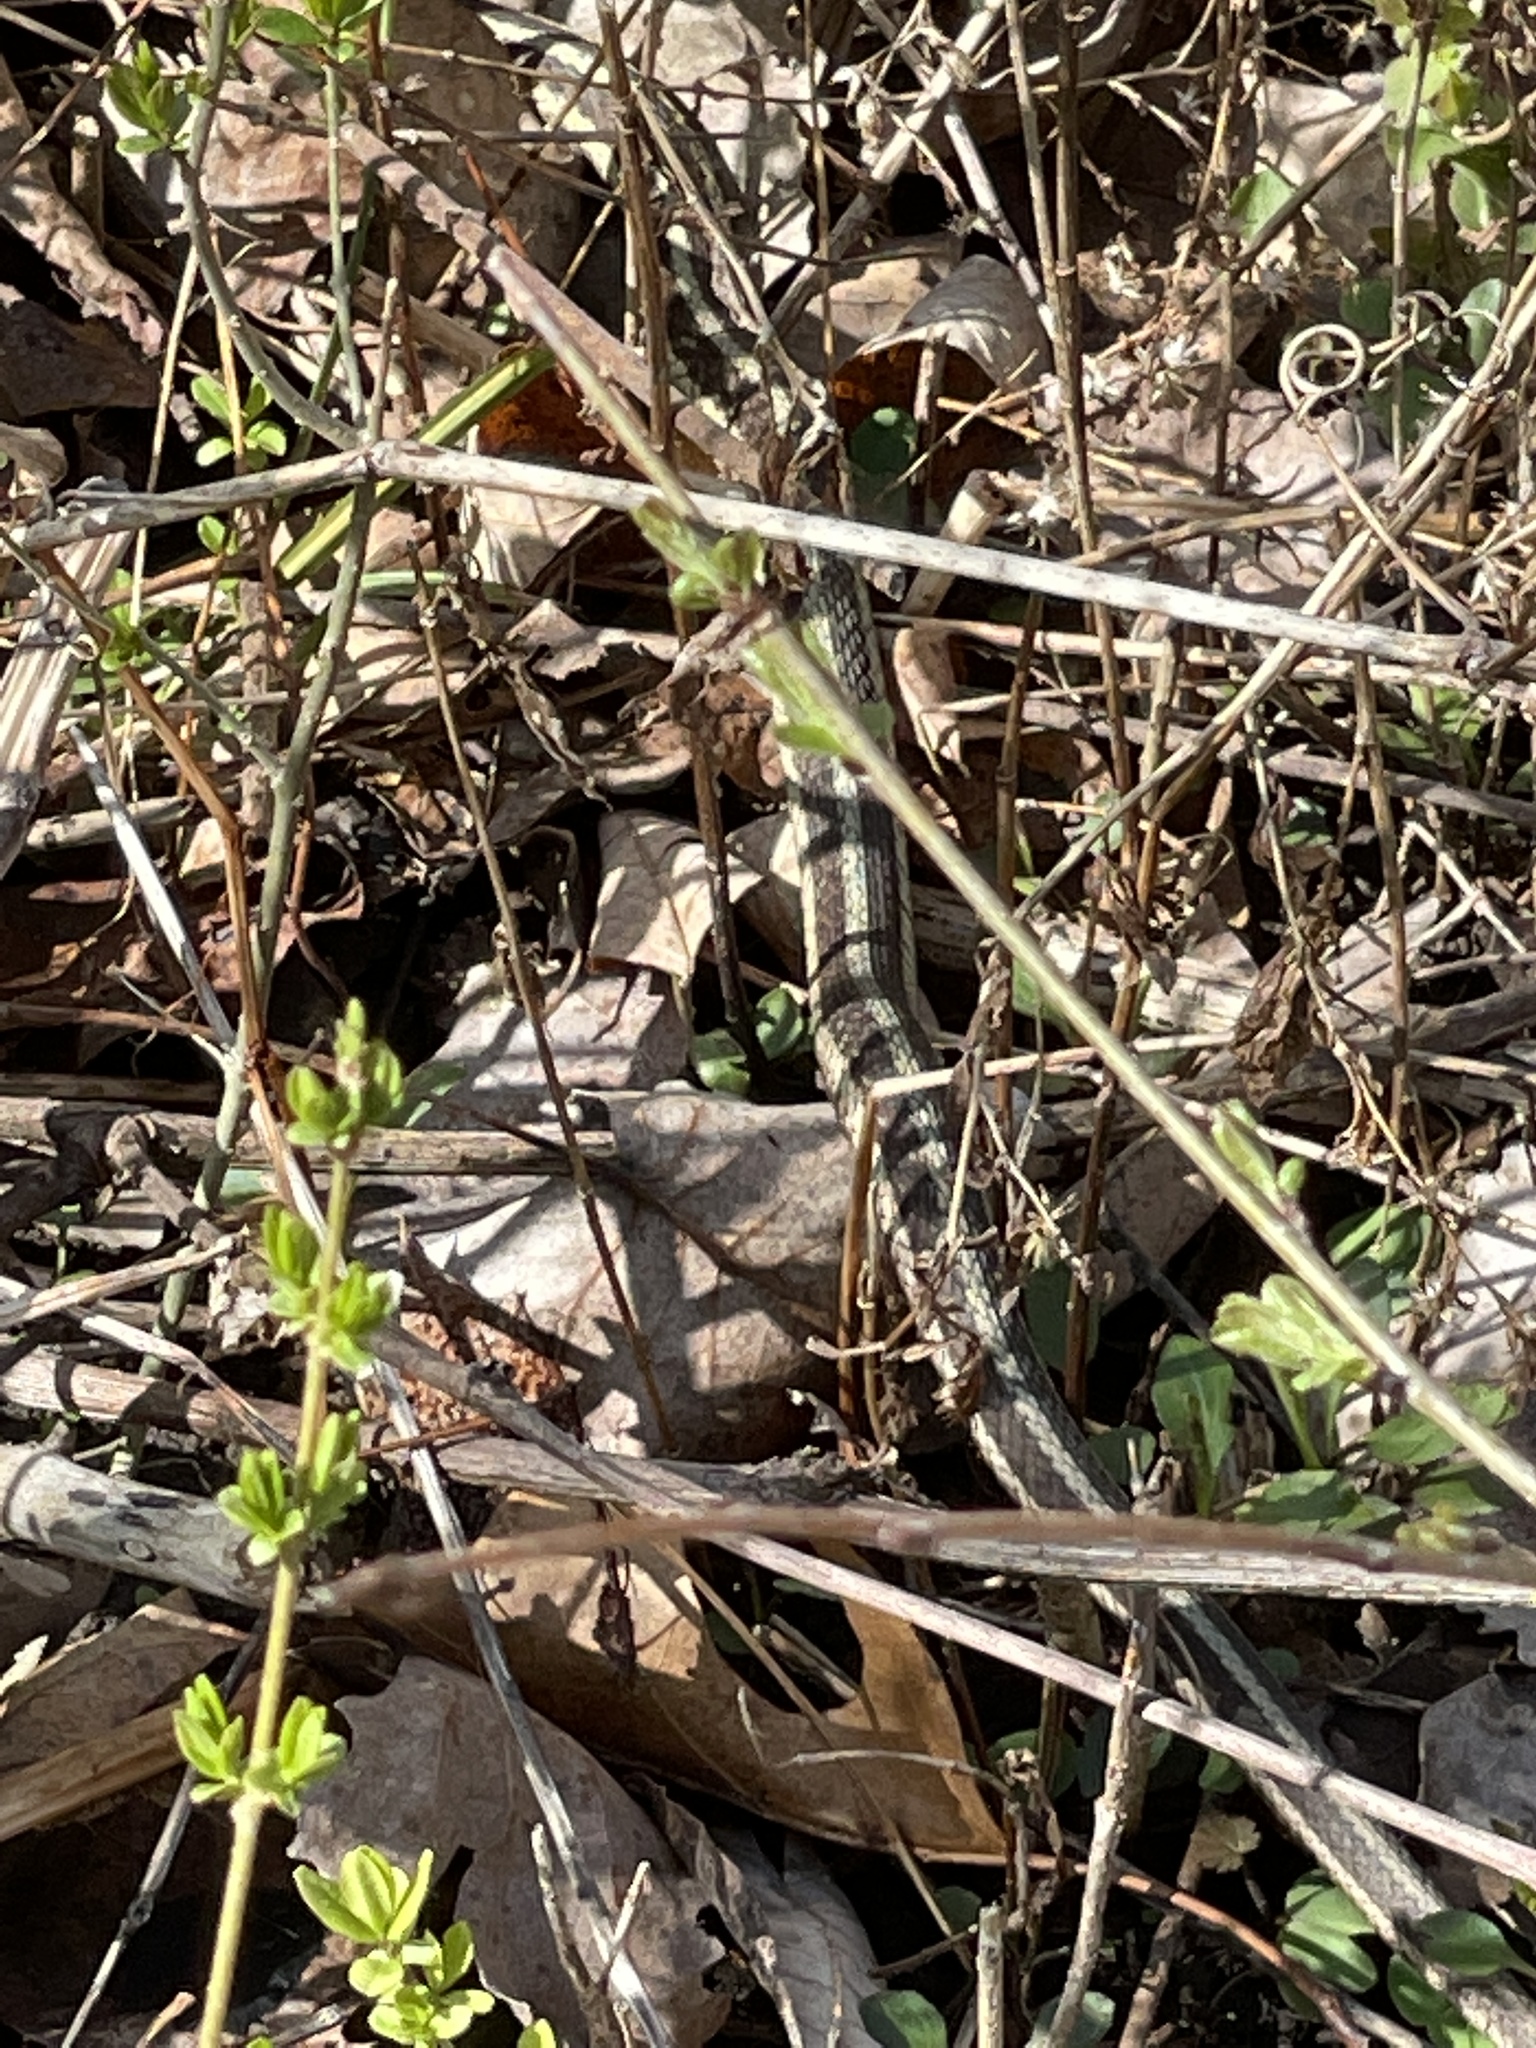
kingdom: Animalia
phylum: Chordata
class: Squamata
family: Colubridae
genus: Thamnophis
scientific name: Thamnophis sirtalis
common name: Common garter snake
